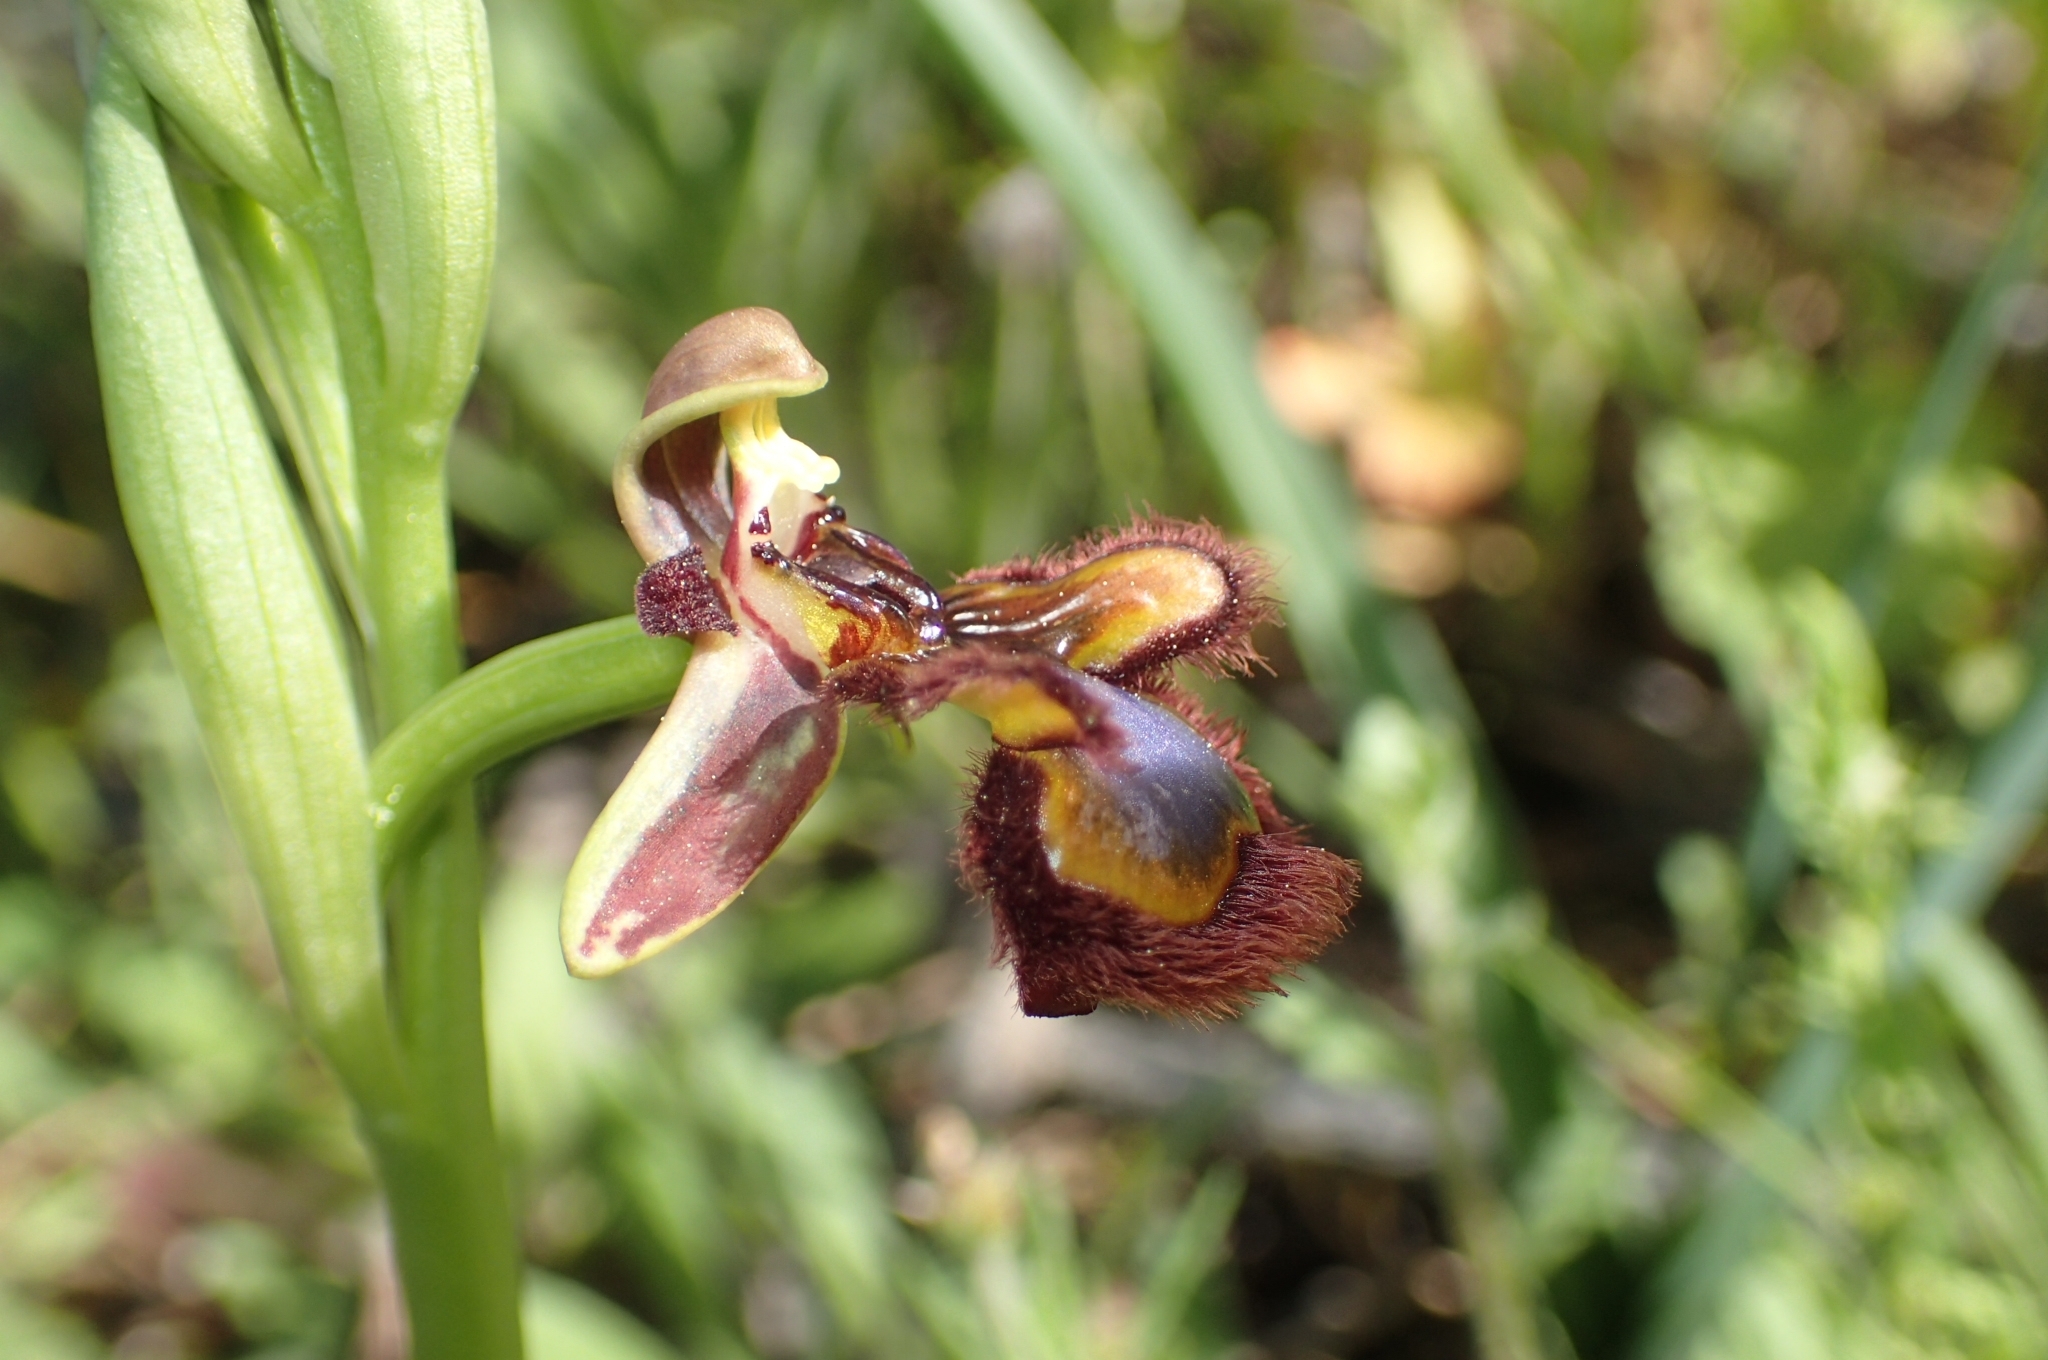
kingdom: Plantae
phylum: Tracheophyta
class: Liliopsida
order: Asparagales
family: Orchidaceae
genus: Ophrys
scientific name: Ophrys speculum
